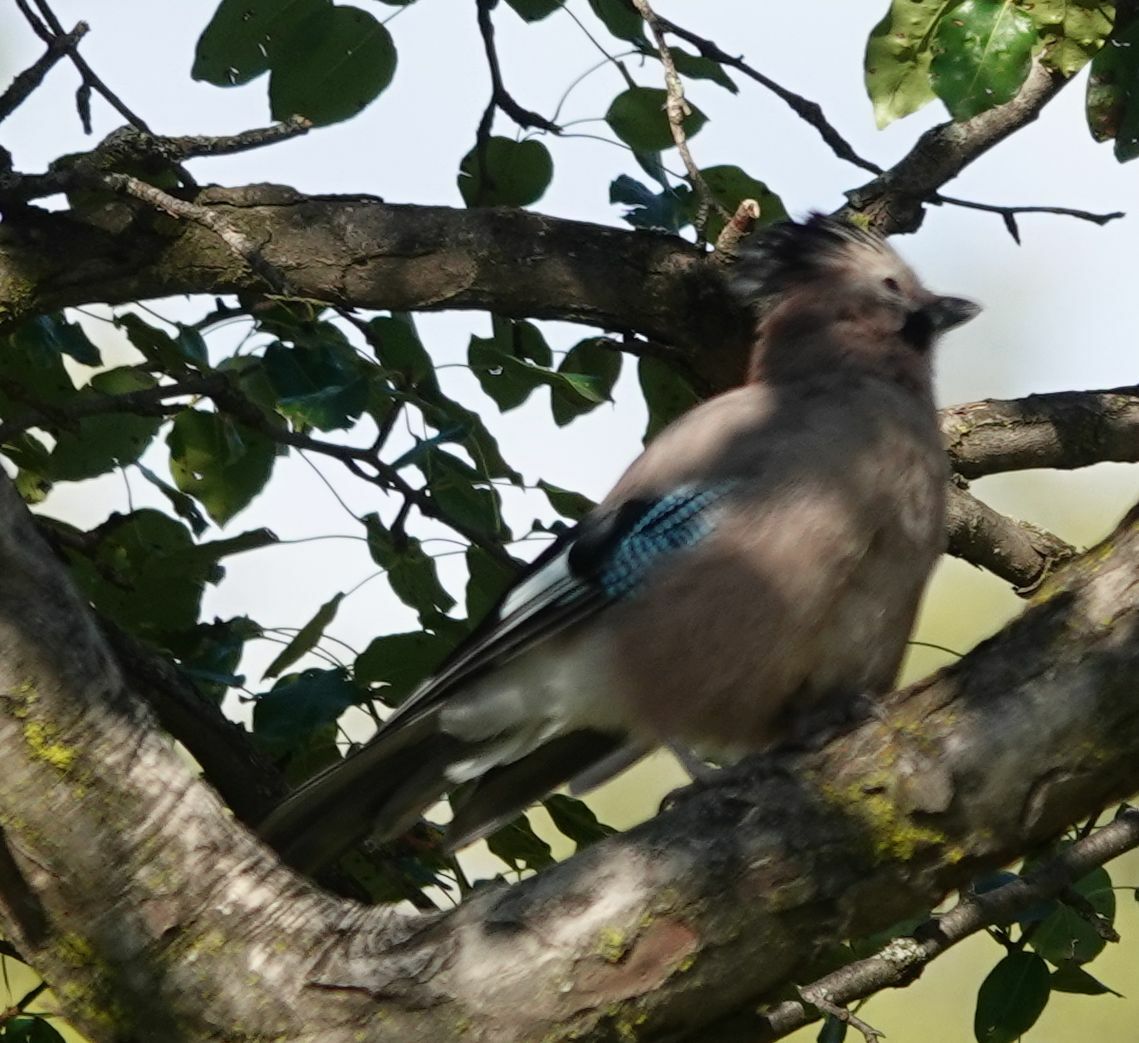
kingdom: Animalia
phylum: Chordata
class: Aves
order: Passeriformes
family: Corvidae
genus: Garrulus
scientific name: Garrulus glandarius
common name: Eurasian jay
